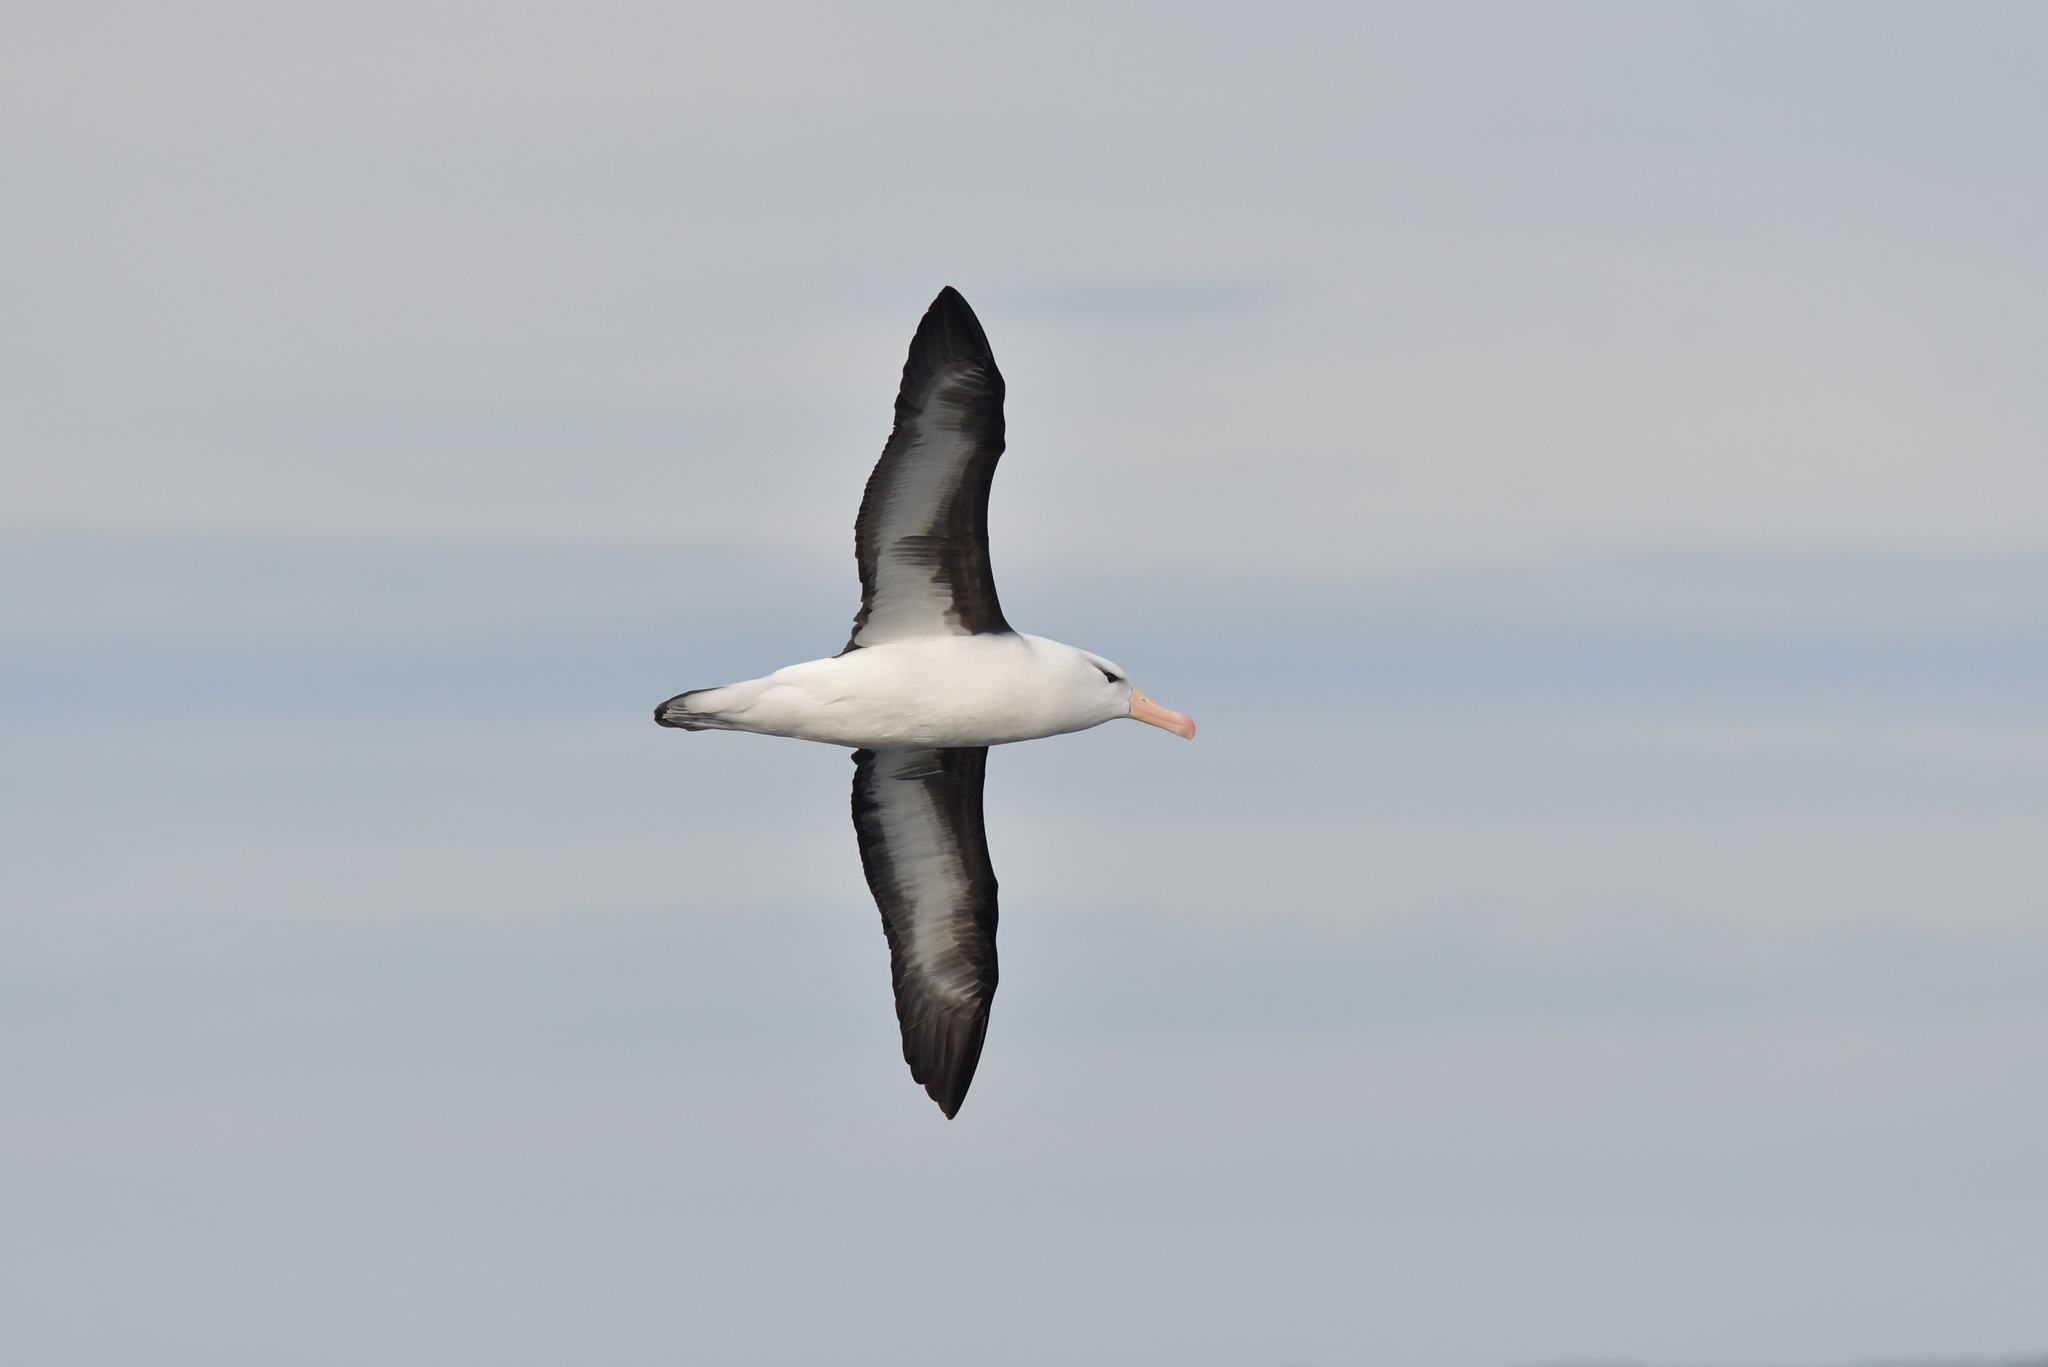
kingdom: Animalia
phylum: Chordata
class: Aves
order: Procellariiformes
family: Diomedeidae
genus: Thalassarche
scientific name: Thalassarche melanophris
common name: Black-browed albatross
